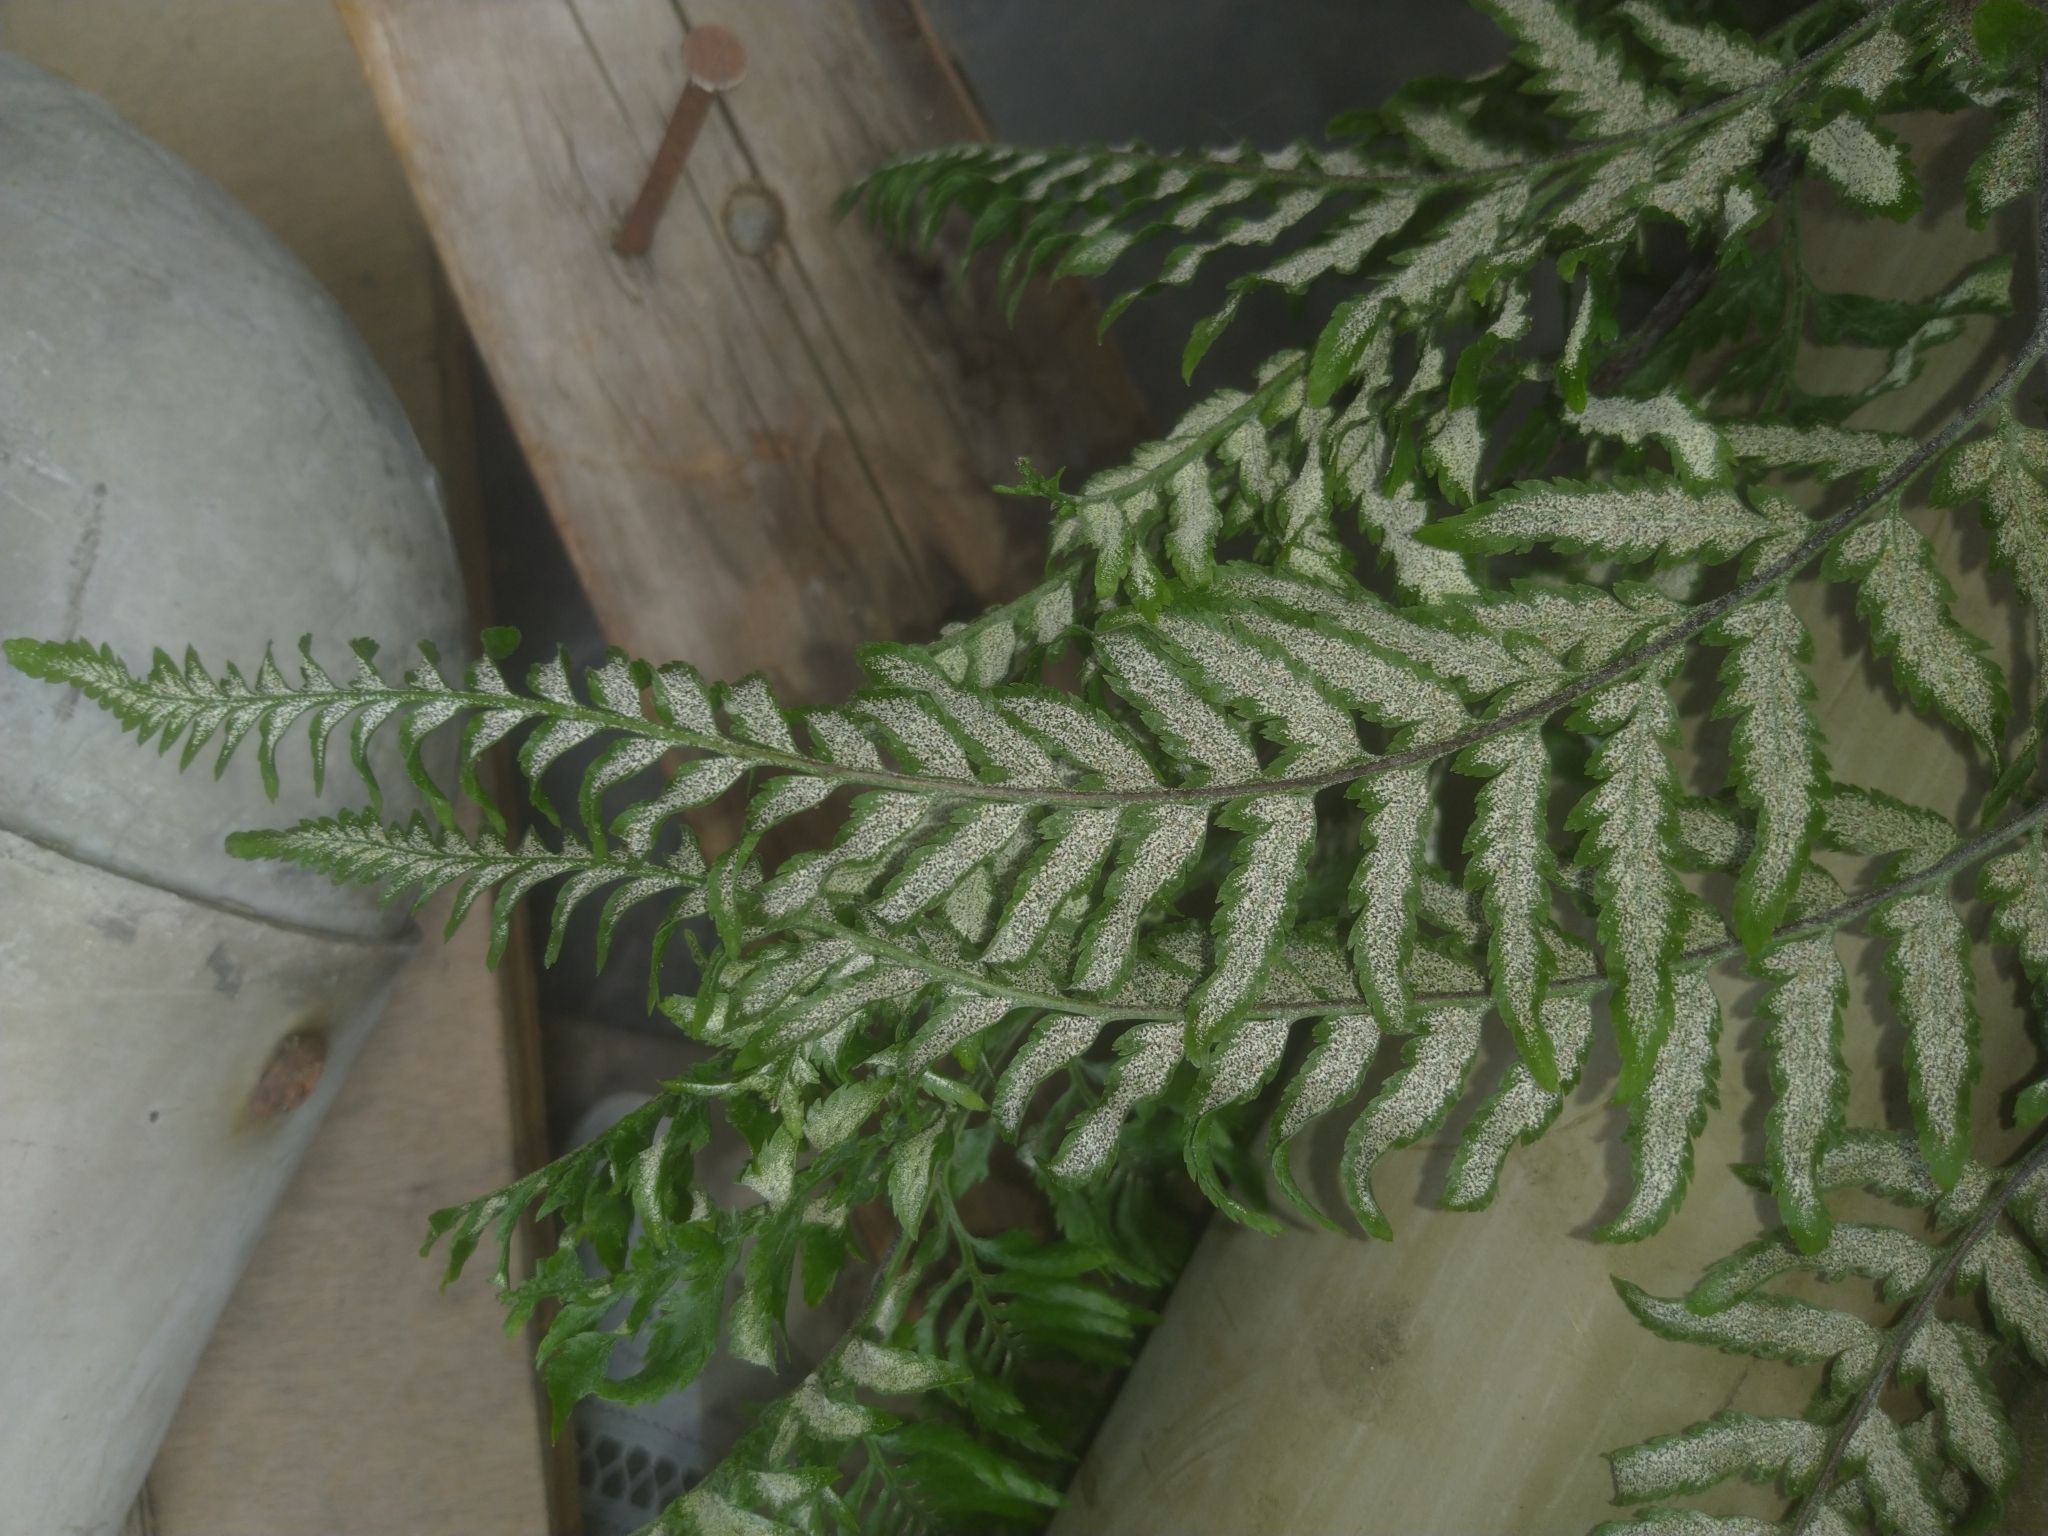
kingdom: Plantae
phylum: Tracheophyta
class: Polypodiopsida
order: Polypodiales
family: Pteridaceae
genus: Pityrogramma
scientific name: Pityrogramma calomelanos
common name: Dixie silverback fern
